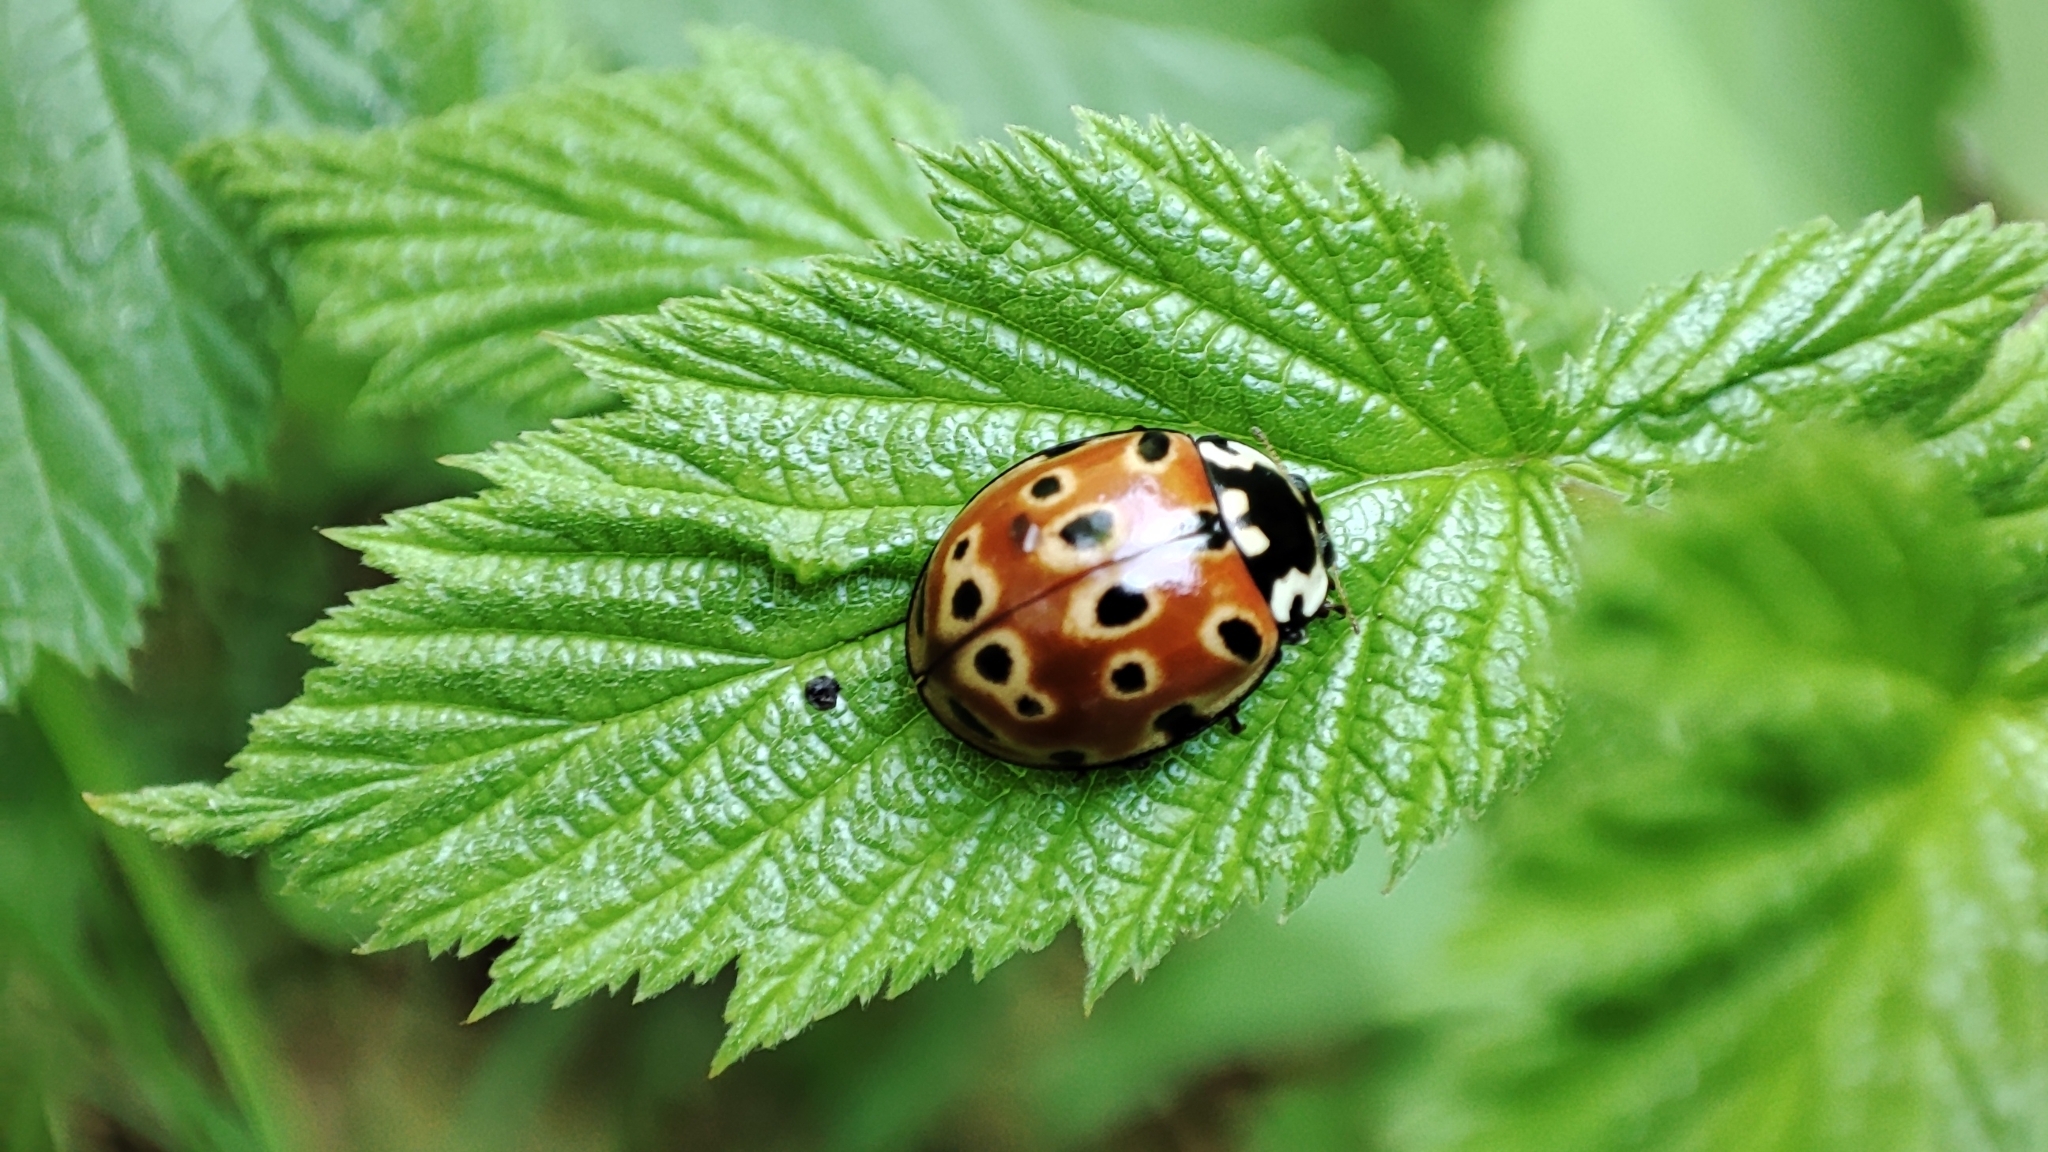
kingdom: Animalia
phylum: Arthropoda
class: Insecta
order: Coleoptera
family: Coccinellidae
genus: Anatis
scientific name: Anatis ocellata
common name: Eyed ladybird
